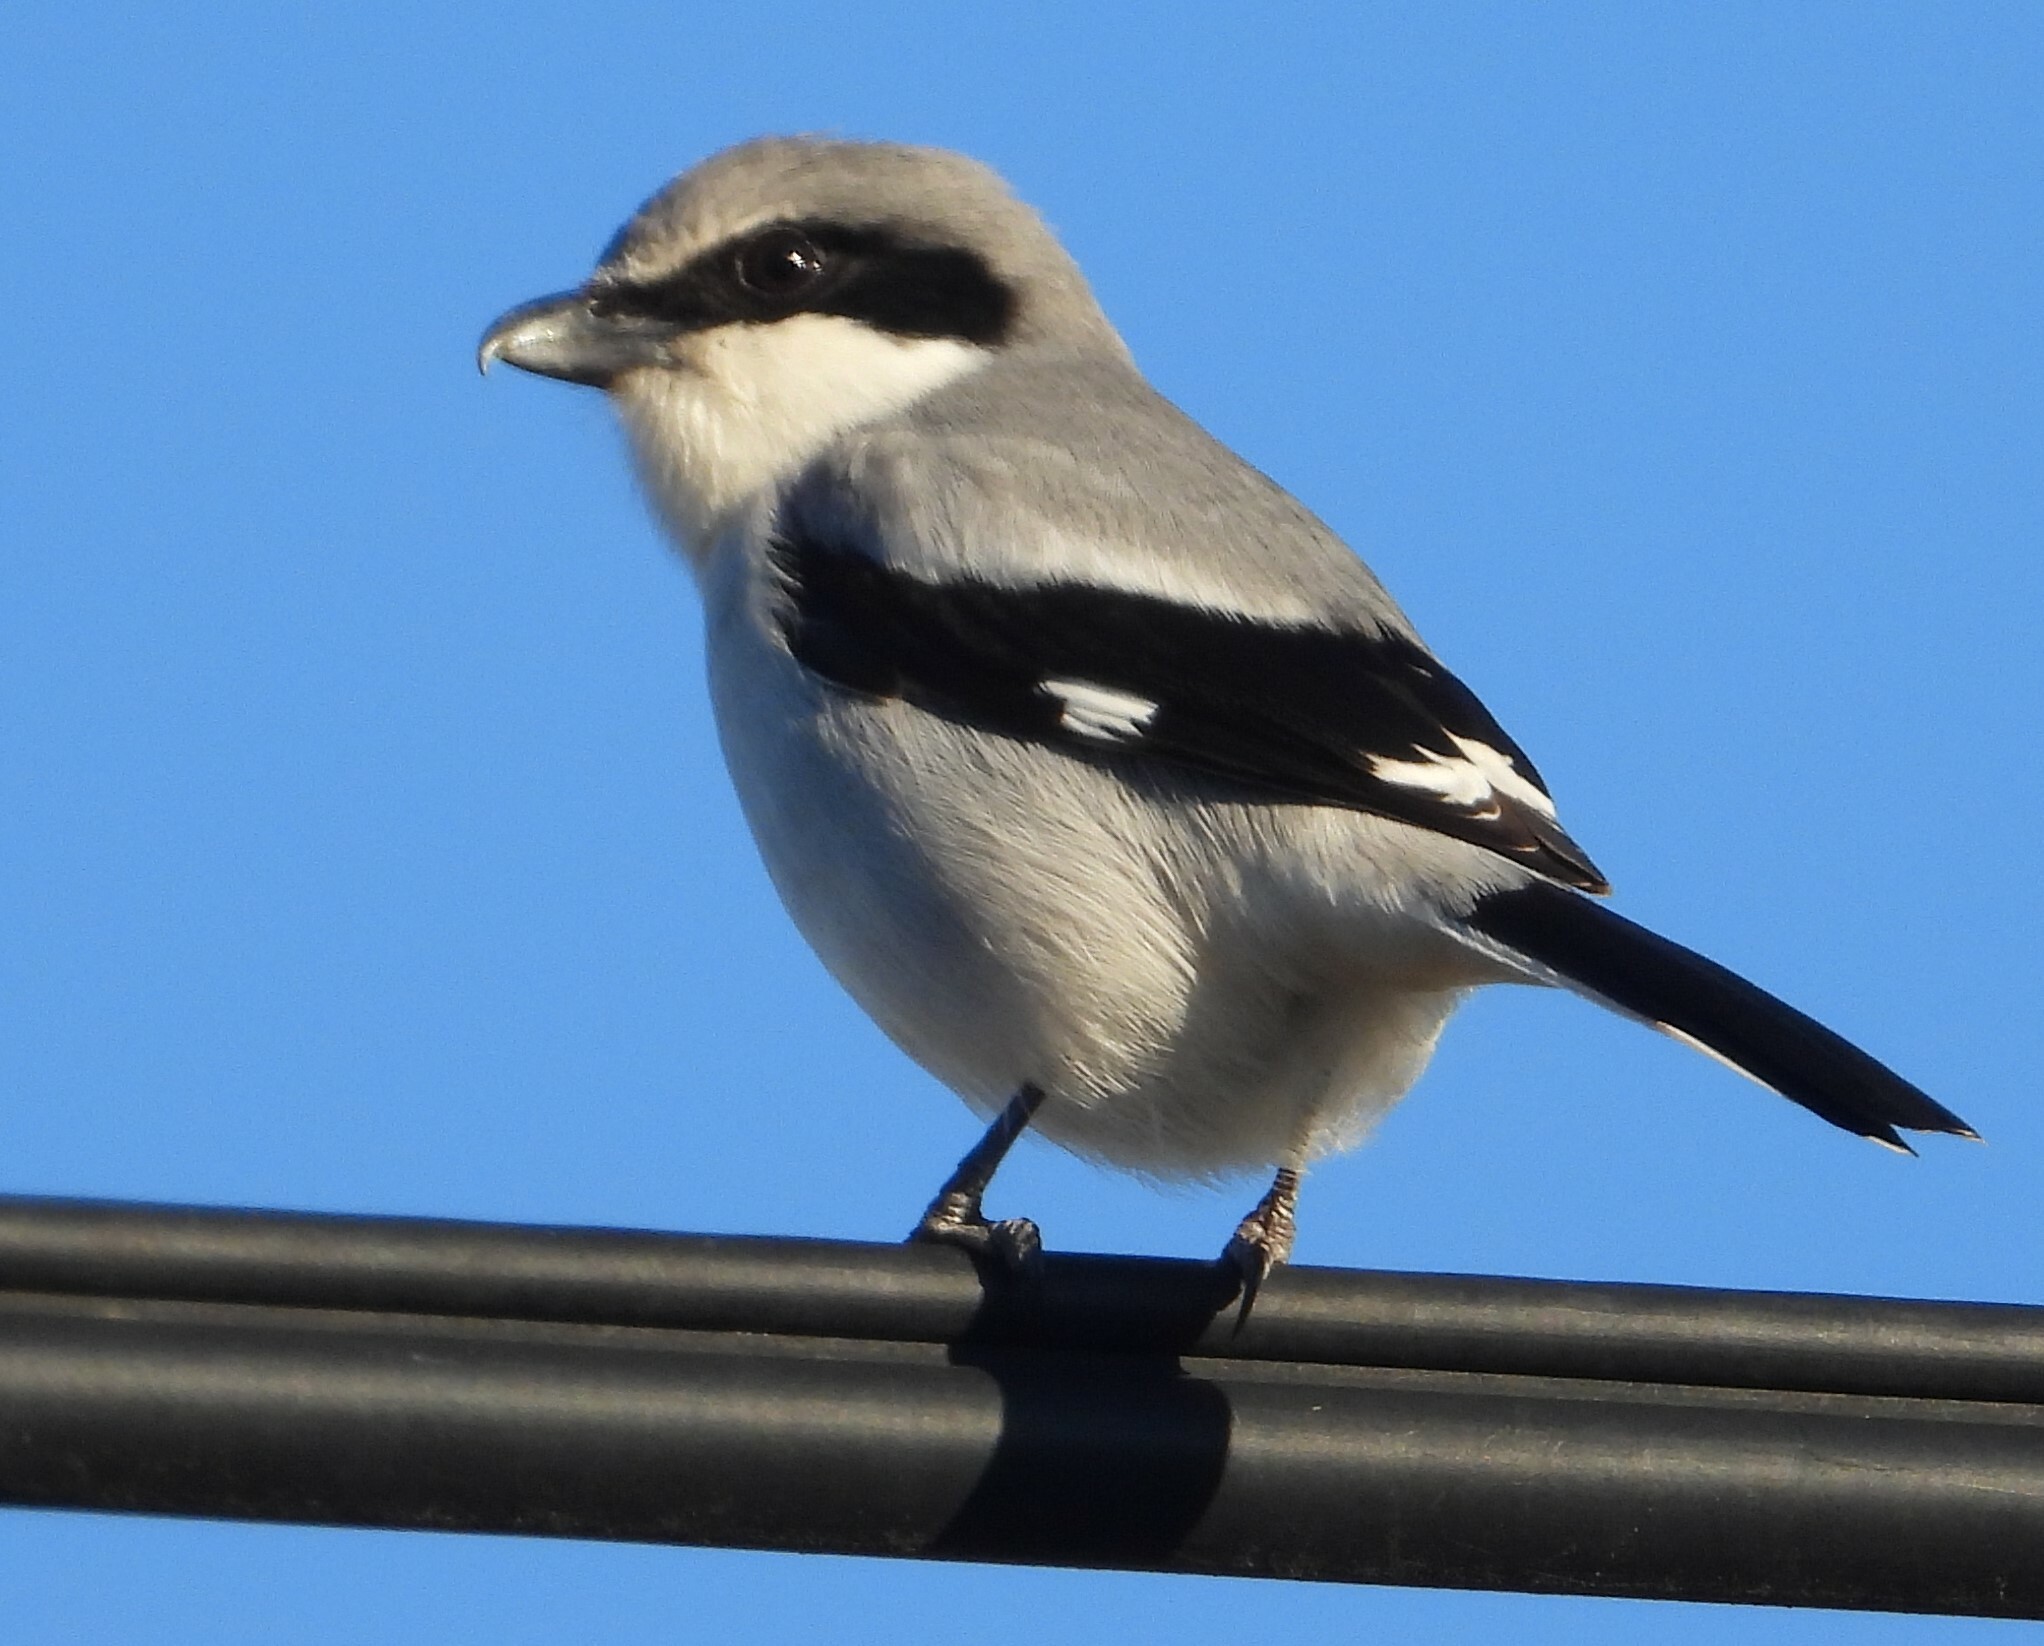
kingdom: Animalia
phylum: Chordata
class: Aves
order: Passeriformes
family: Laniidae
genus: Lanius
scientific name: Lanius ludovicianus
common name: Loggerhead shrike
